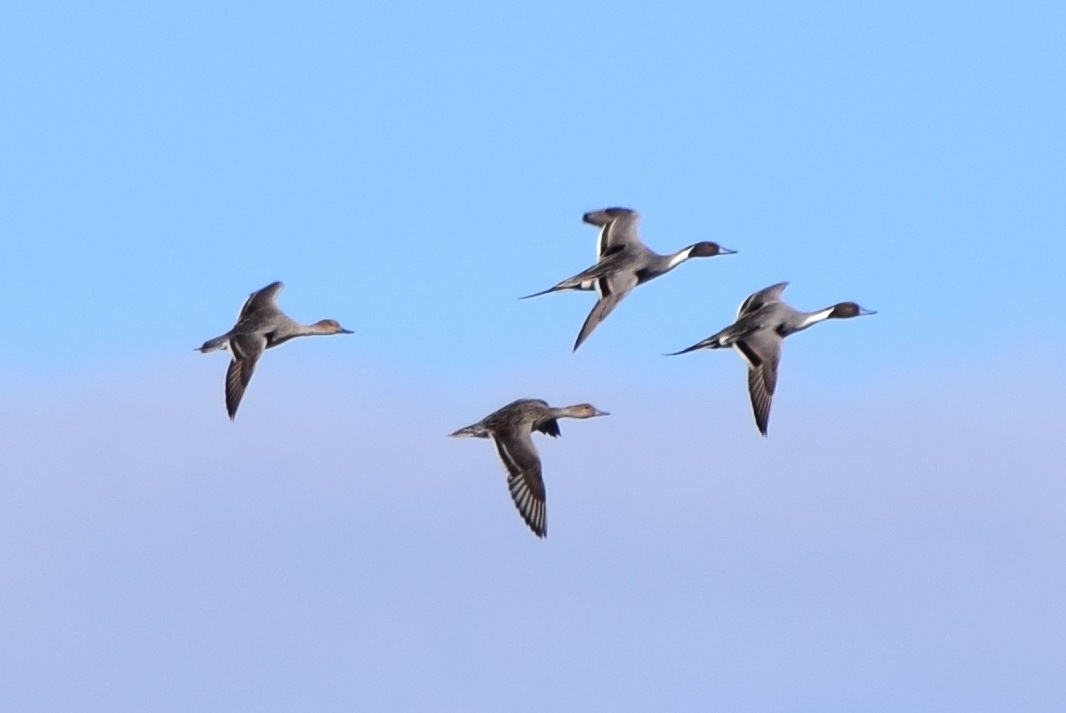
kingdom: Animalia
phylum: Chordata
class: Aves
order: Anseriformes
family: Anatidae
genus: Anas
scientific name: Anas acuta
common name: Northern pintail
